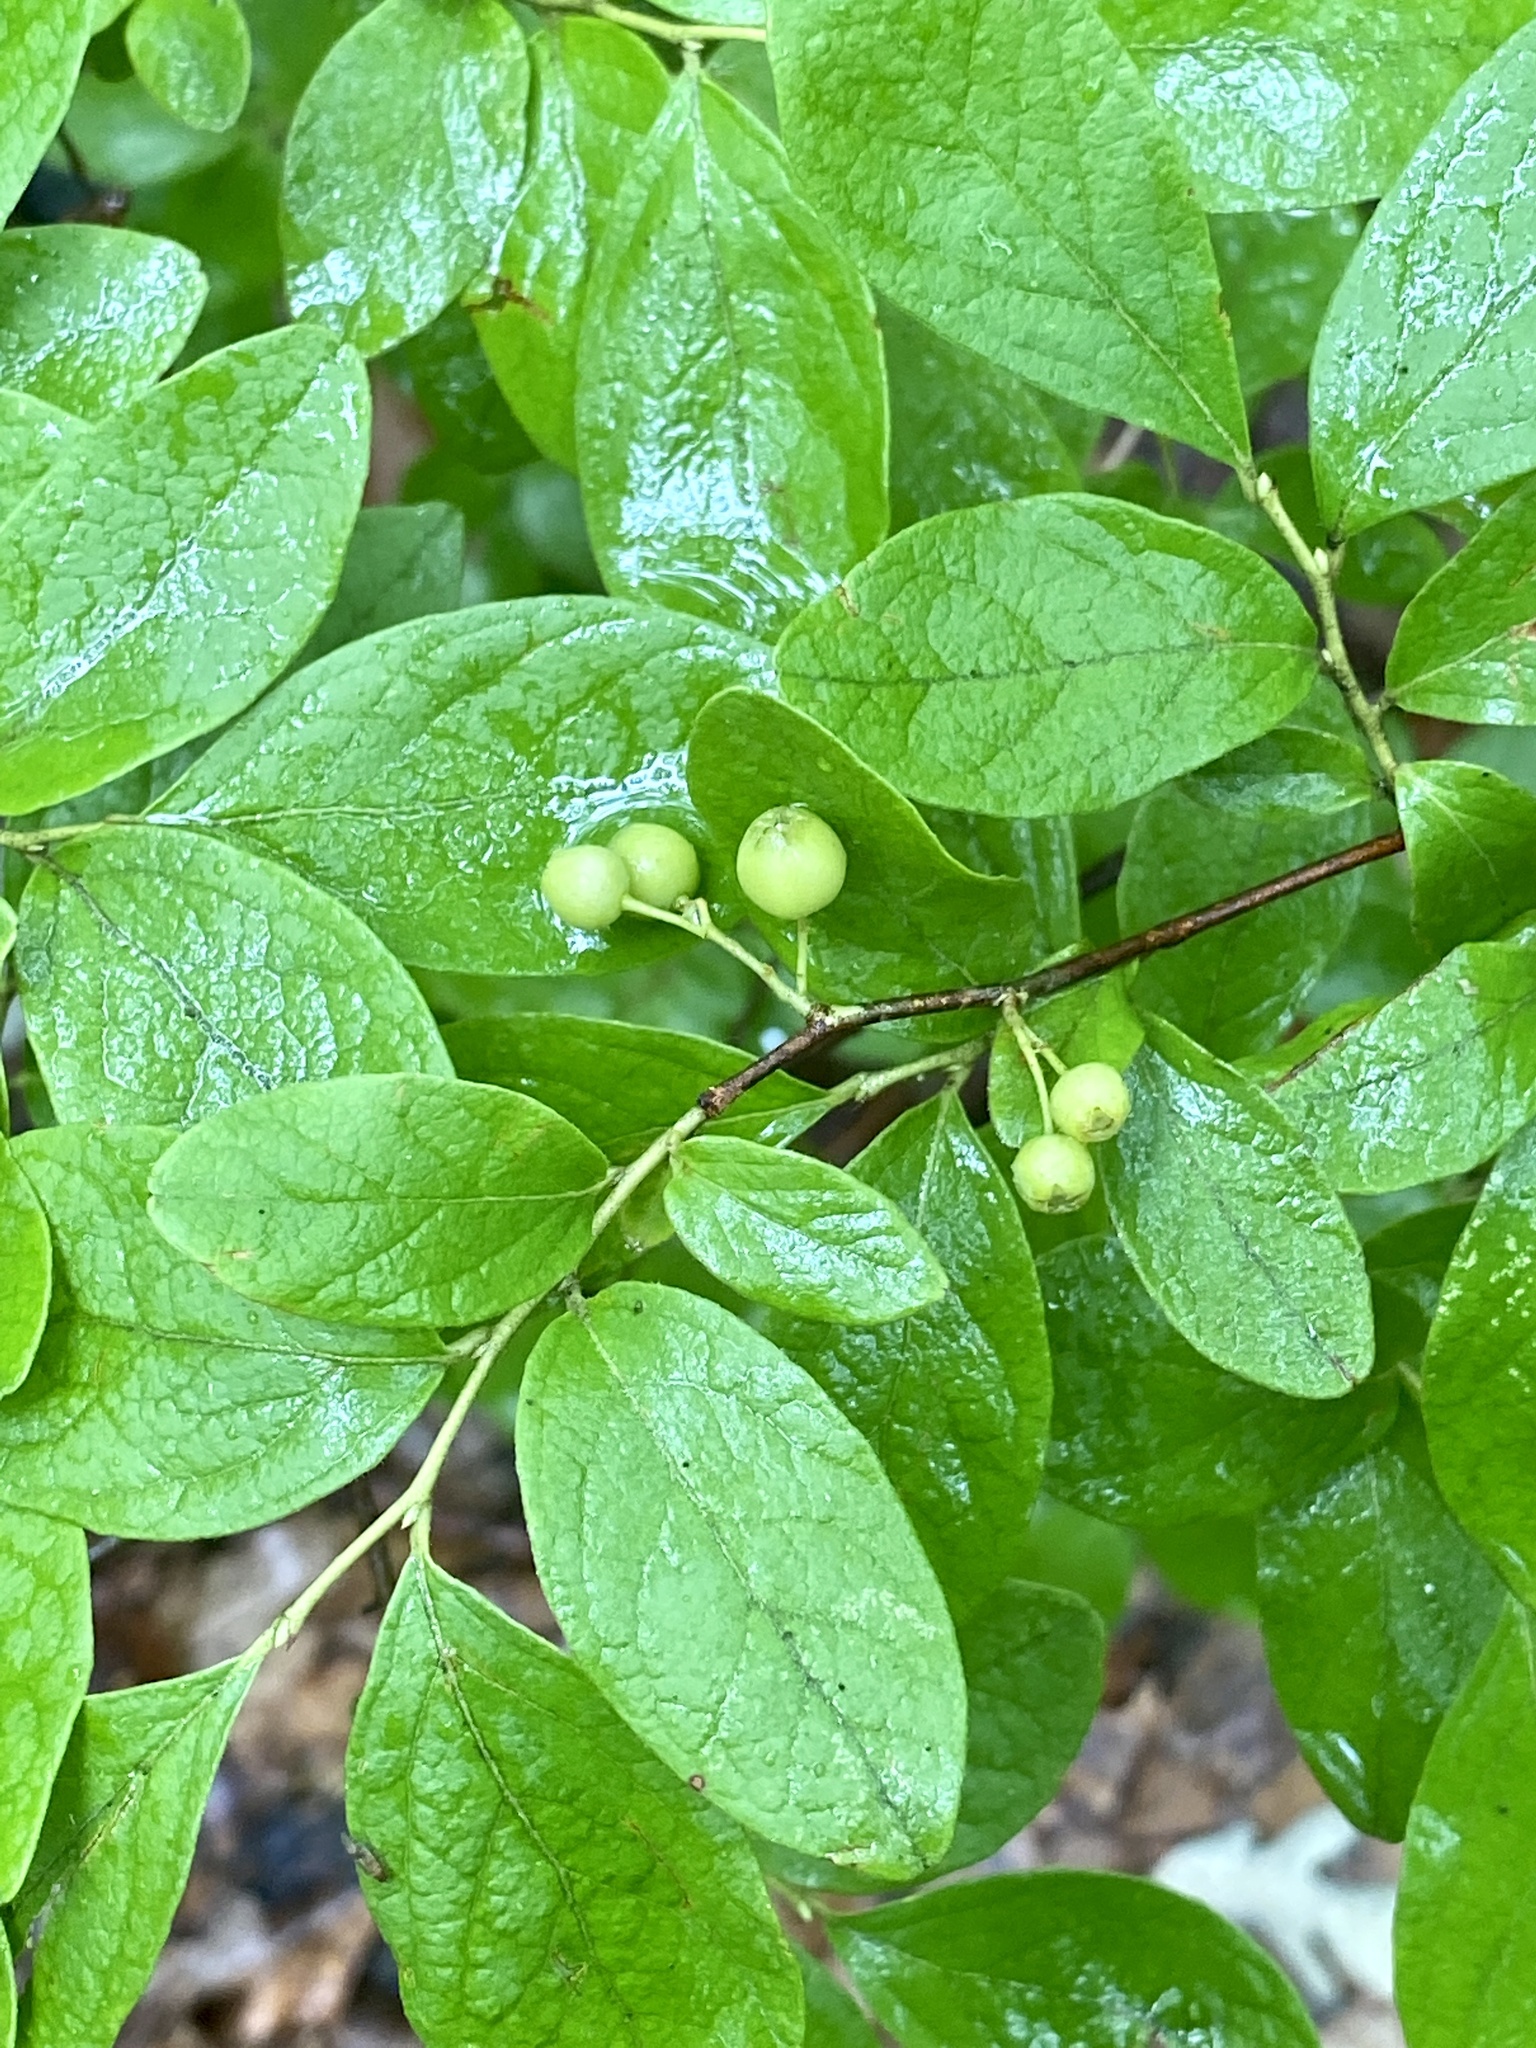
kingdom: Plantae
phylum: Tracheophyta
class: Magnoliopsida
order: Ericales
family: Ericaceae
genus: Gaylussacia
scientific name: Gaylussacia baccata
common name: Black huckleberry
